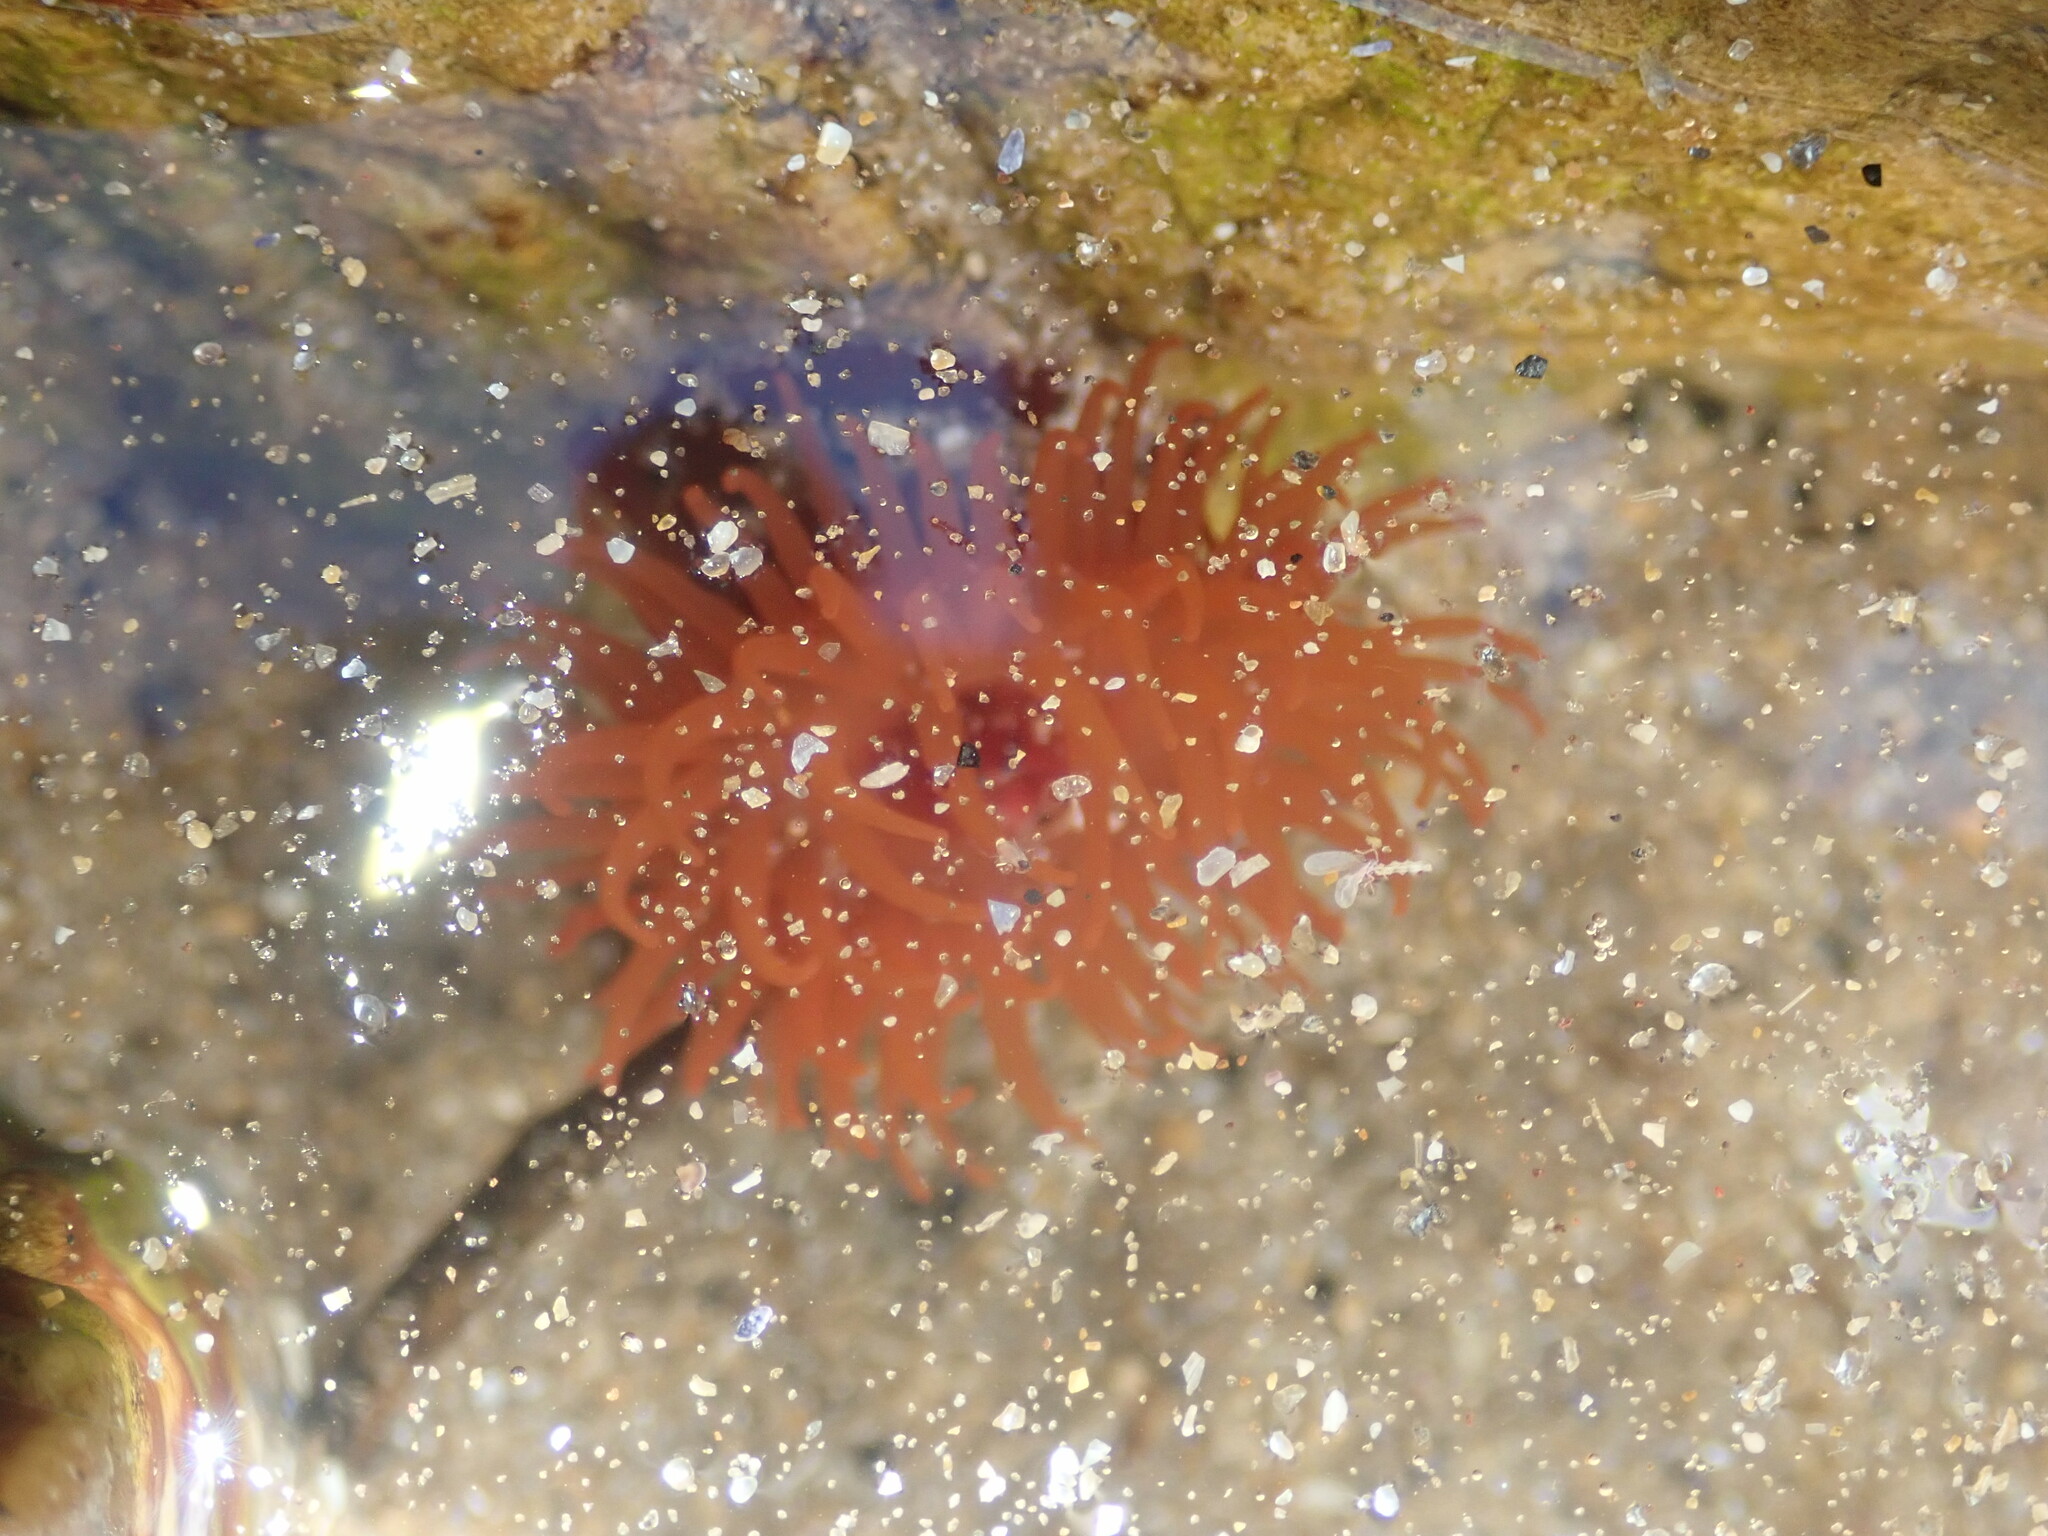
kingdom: Animalia
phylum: Cnidaria
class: Anthozoa
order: Actiniaria
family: Actiniidae
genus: Actinia
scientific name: Actinia equina
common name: Beadlet anemone
